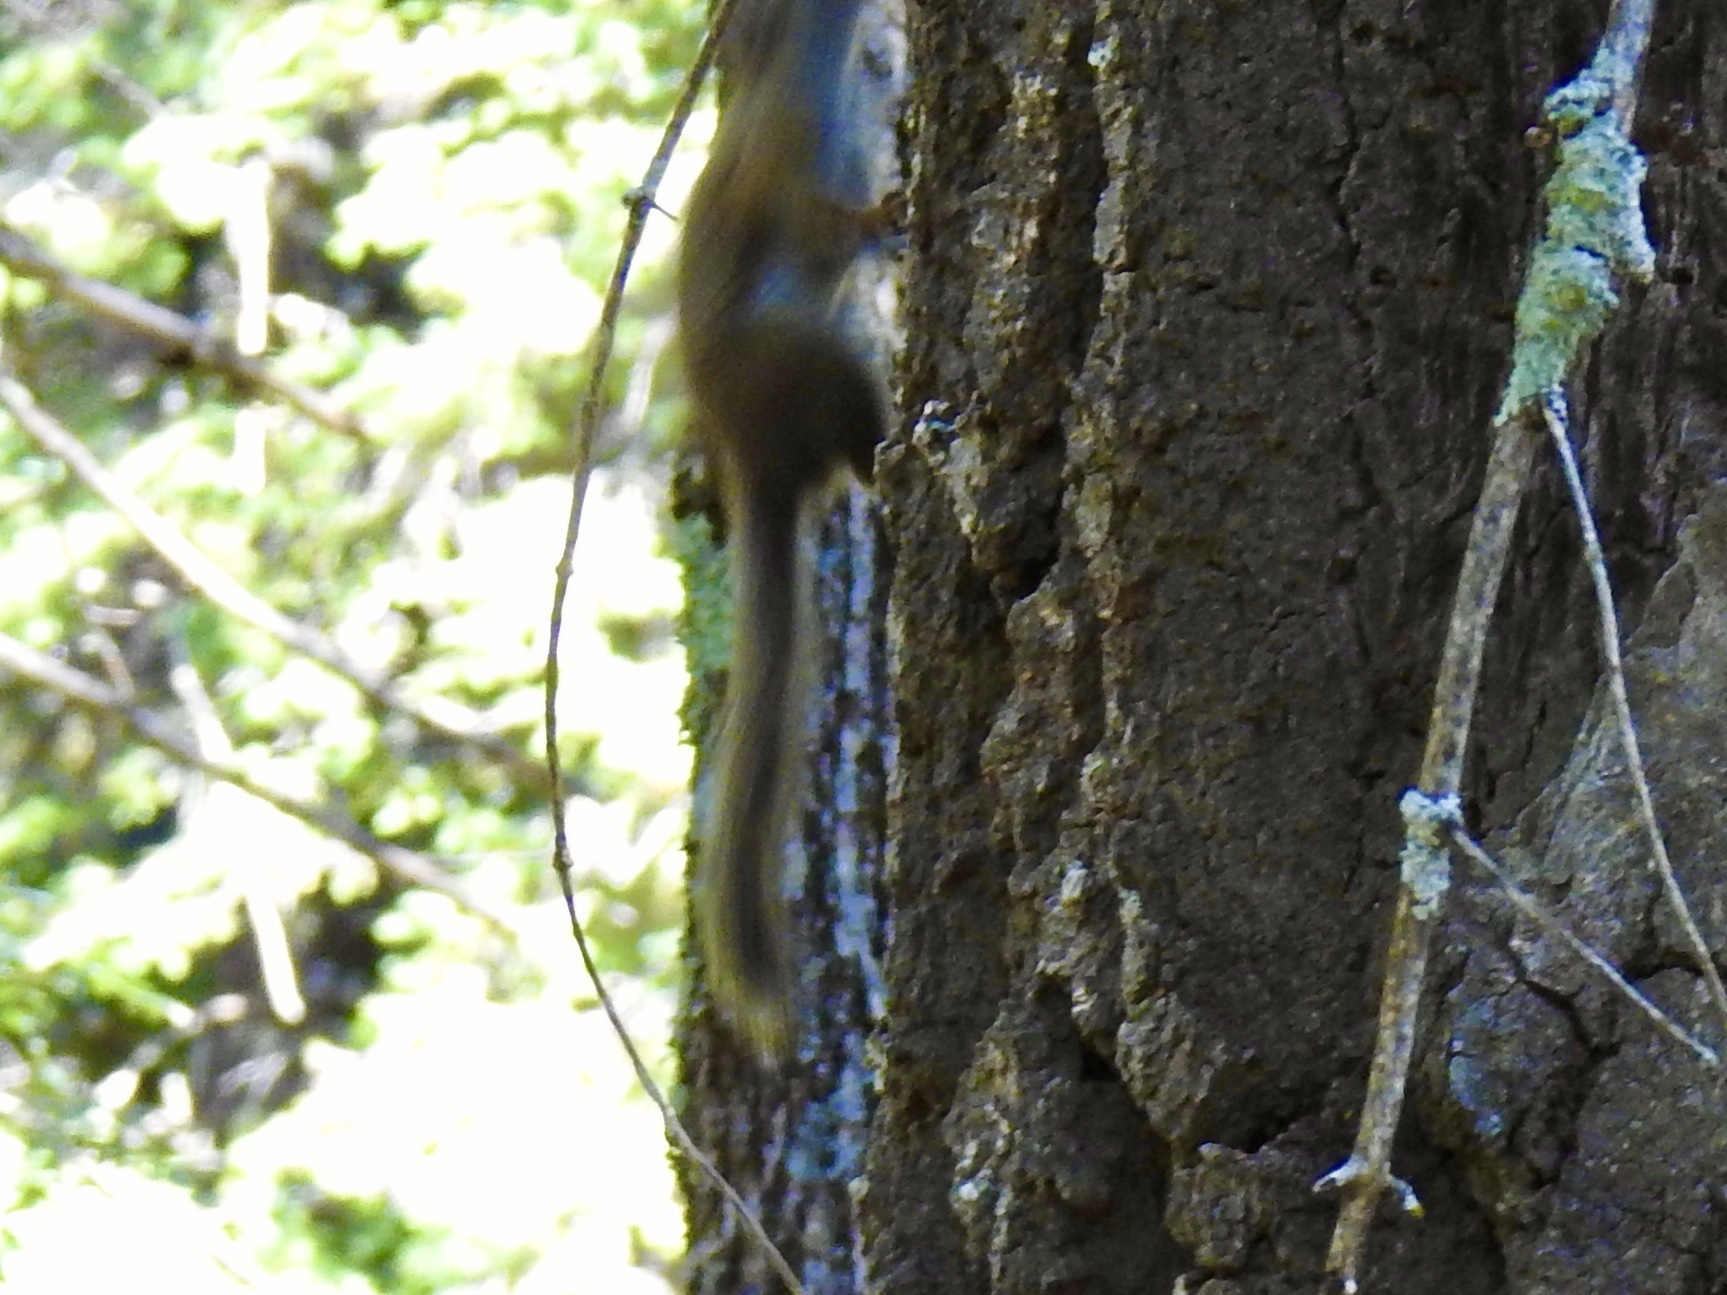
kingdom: Animalia
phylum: Chordata
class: Mammalia
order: Rodentia
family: Sciuridae
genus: Tamiasciurus
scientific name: Tamiasciurus hudsonicus
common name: Red squirrel
